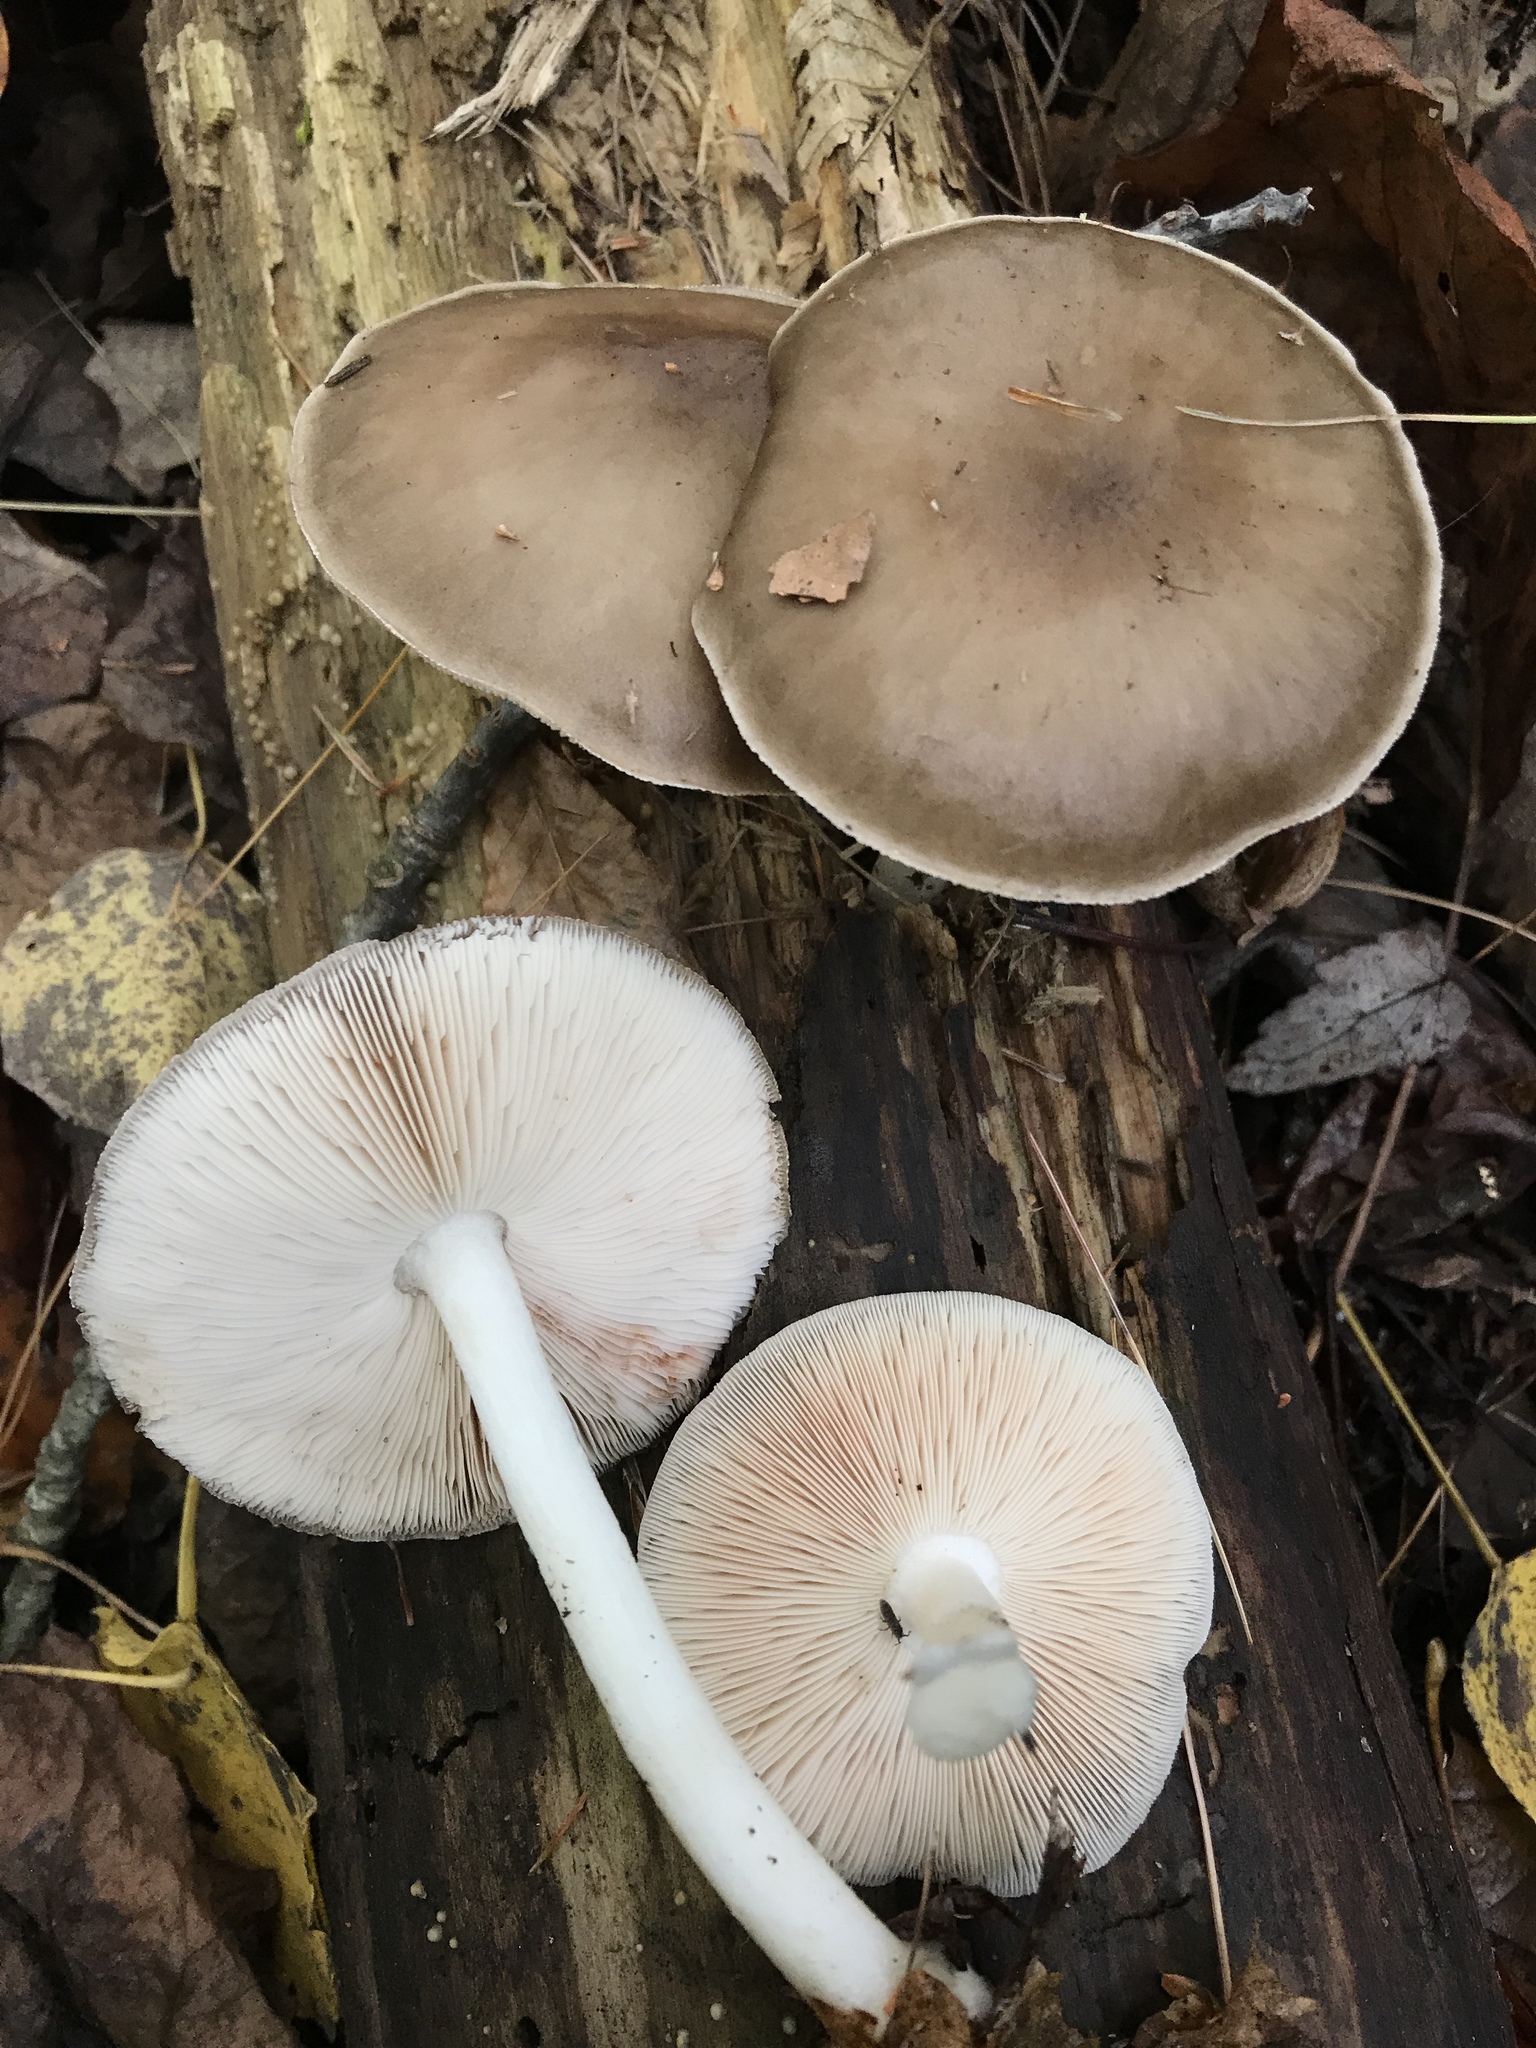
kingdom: Fungi
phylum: Basidiomycota
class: Agaricomycetes
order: Agaricales
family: Pluteaceae
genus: Pluteus
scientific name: Pluteus hongoi
